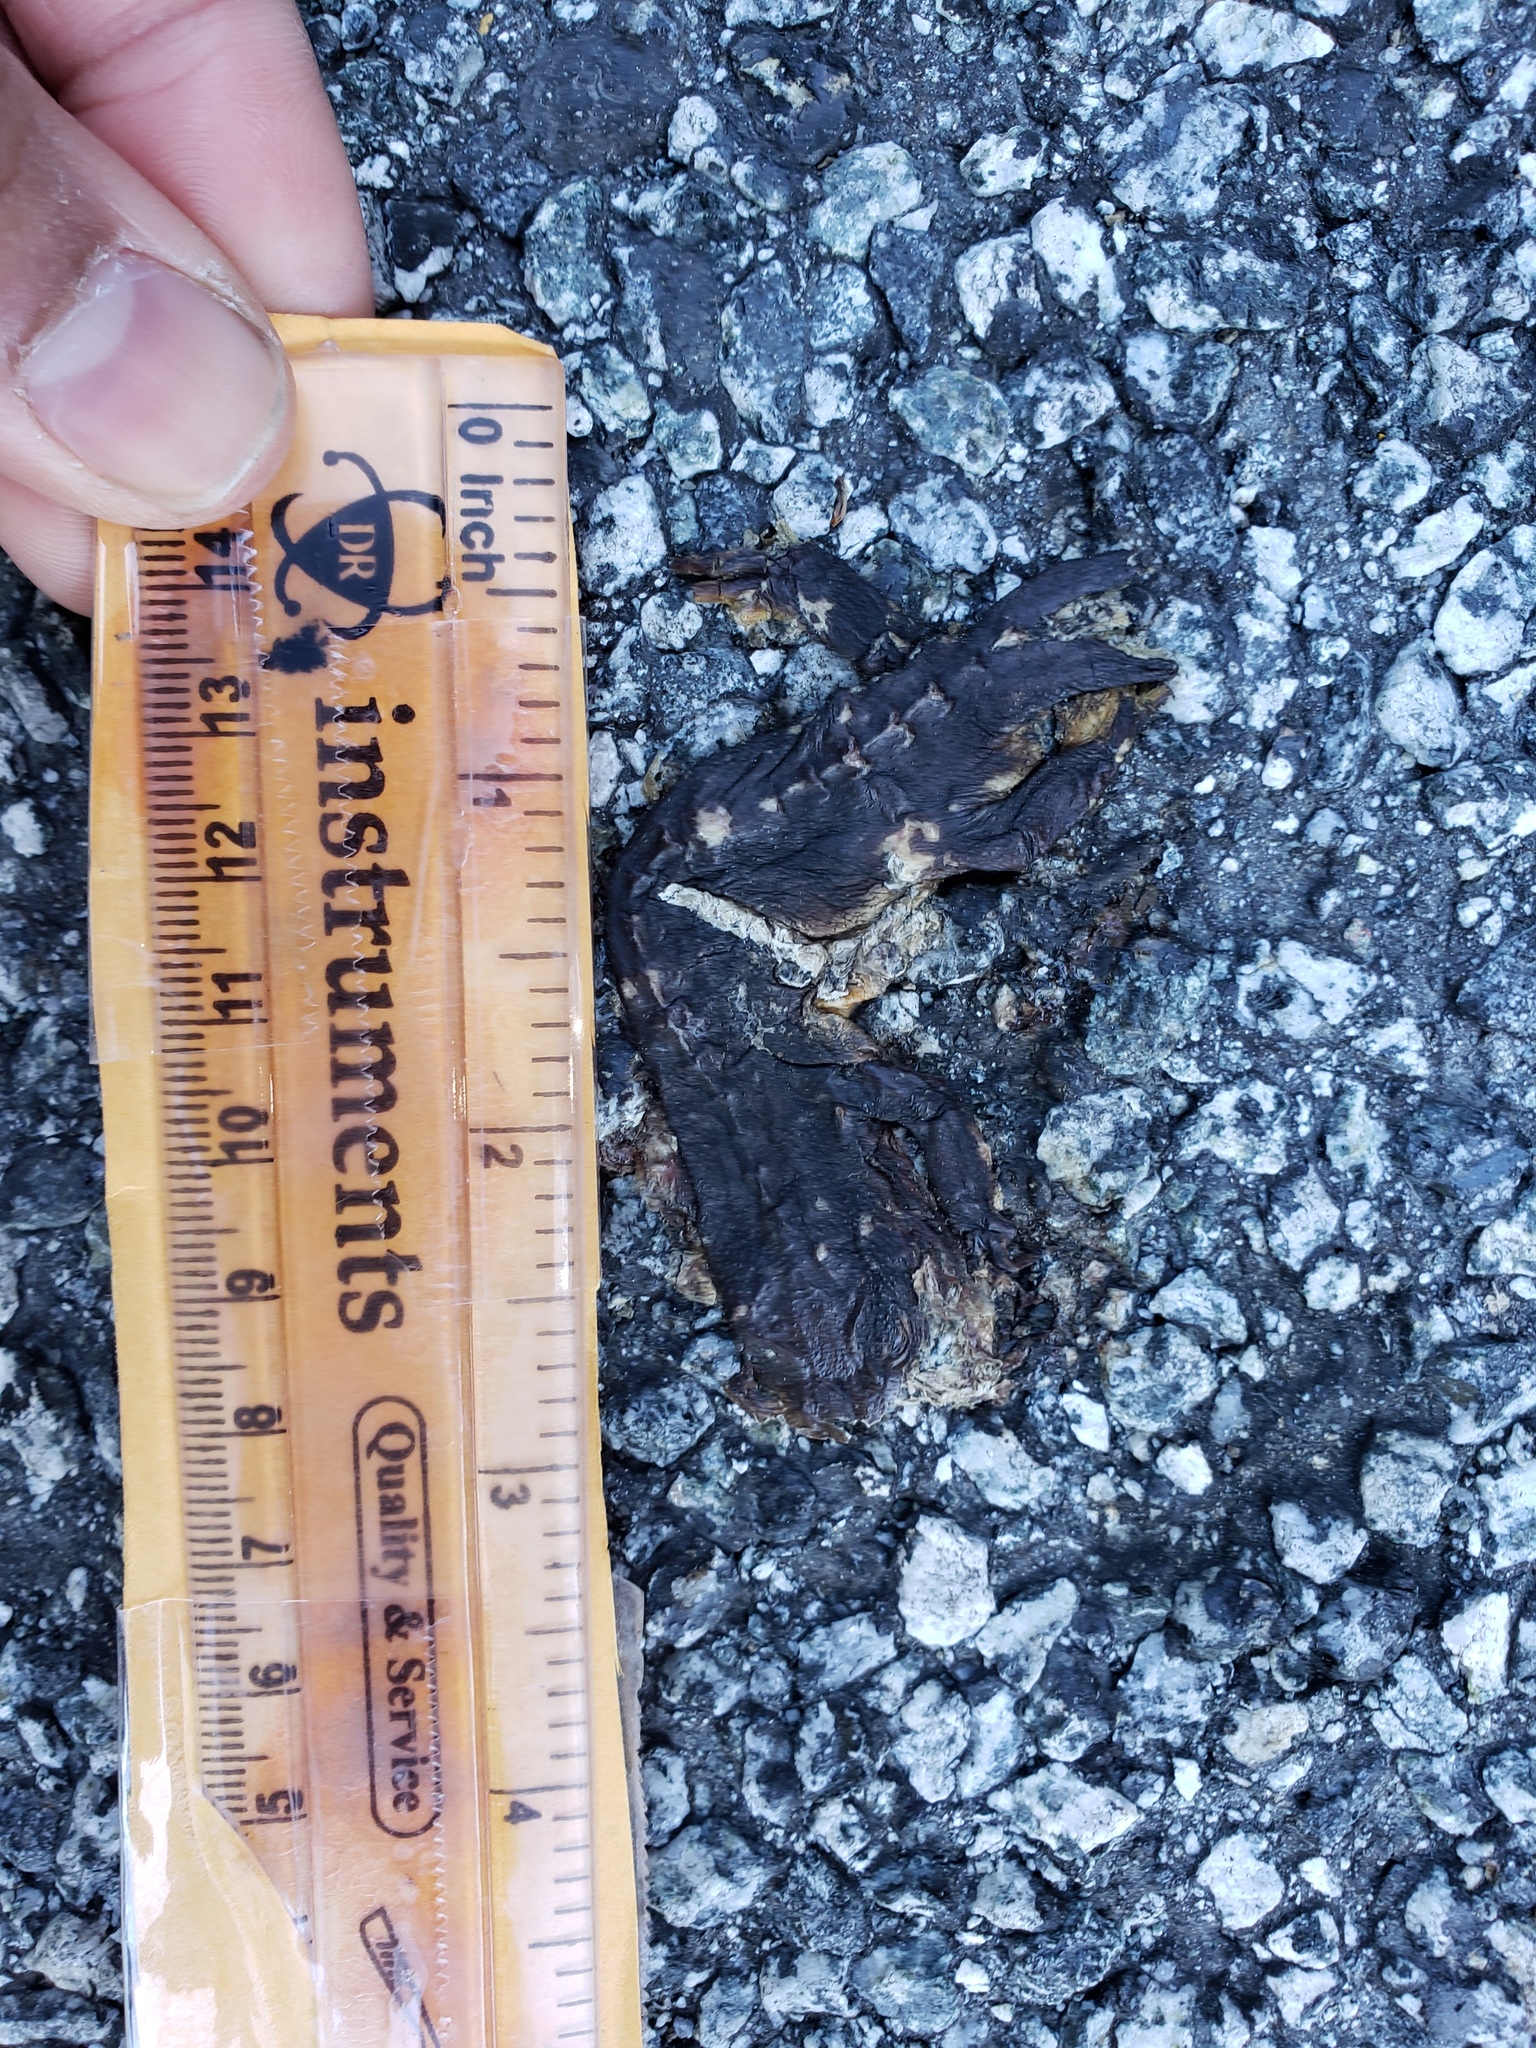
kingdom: Animalia
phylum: Chordata
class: Amphibia
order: Caudata
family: Salamandridae
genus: Taricha
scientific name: Taricha
